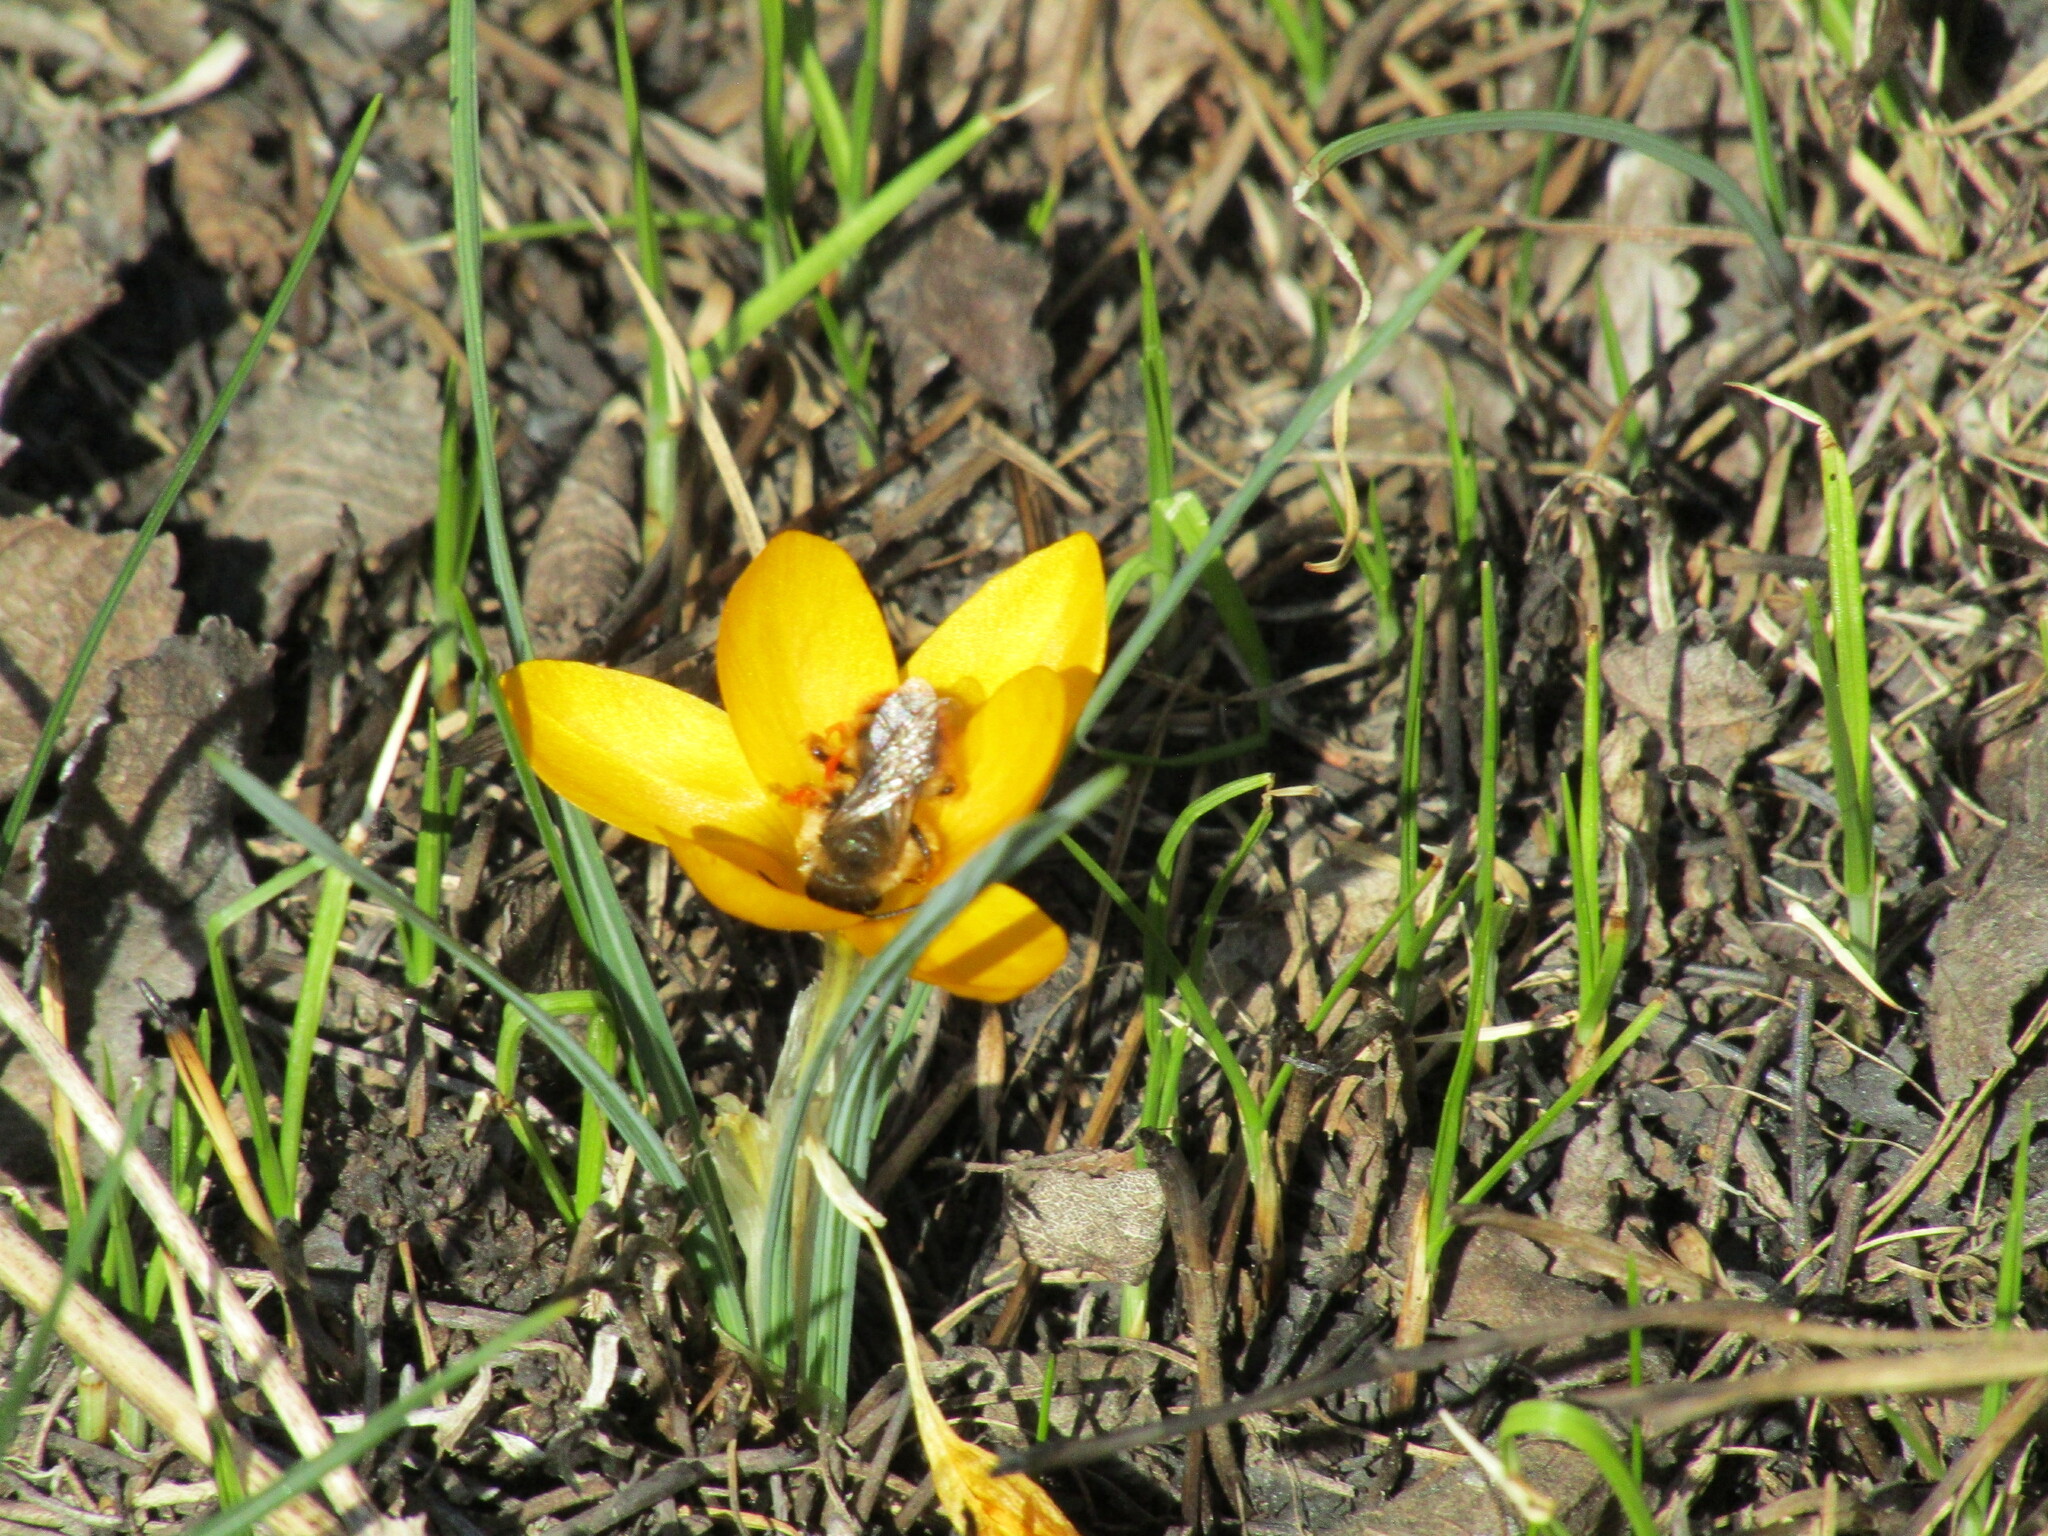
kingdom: Animalia
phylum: Arthropoda
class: Insecta
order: Hymenoptera
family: Megachilidae
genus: Osmia
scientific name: Osmia
